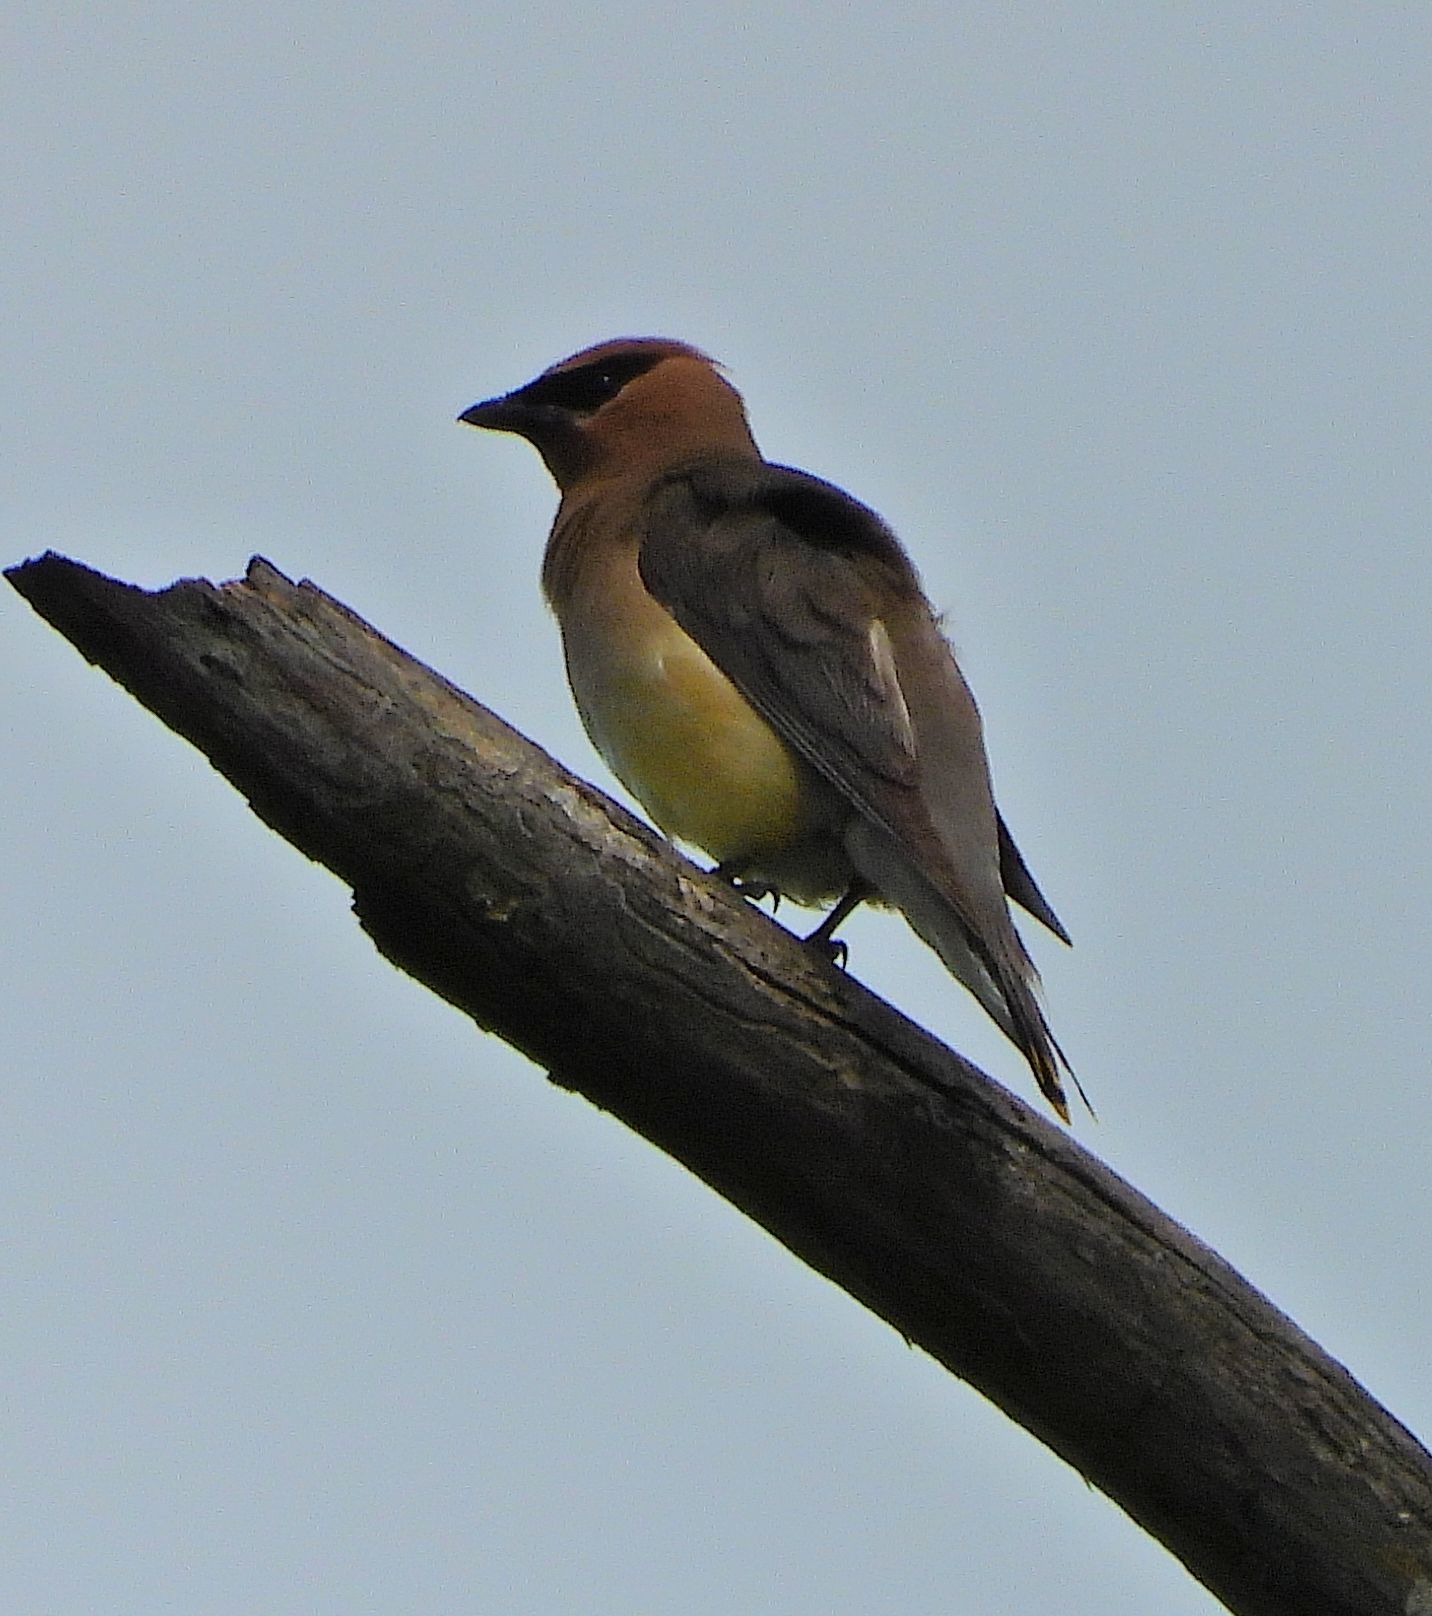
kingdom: Animalia
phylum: Chordata
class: Aves
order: Passeriformes
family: Bombycillidae
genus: Bombycilla
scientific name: Bombycilla cedrorum
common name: Cedar waxwing
